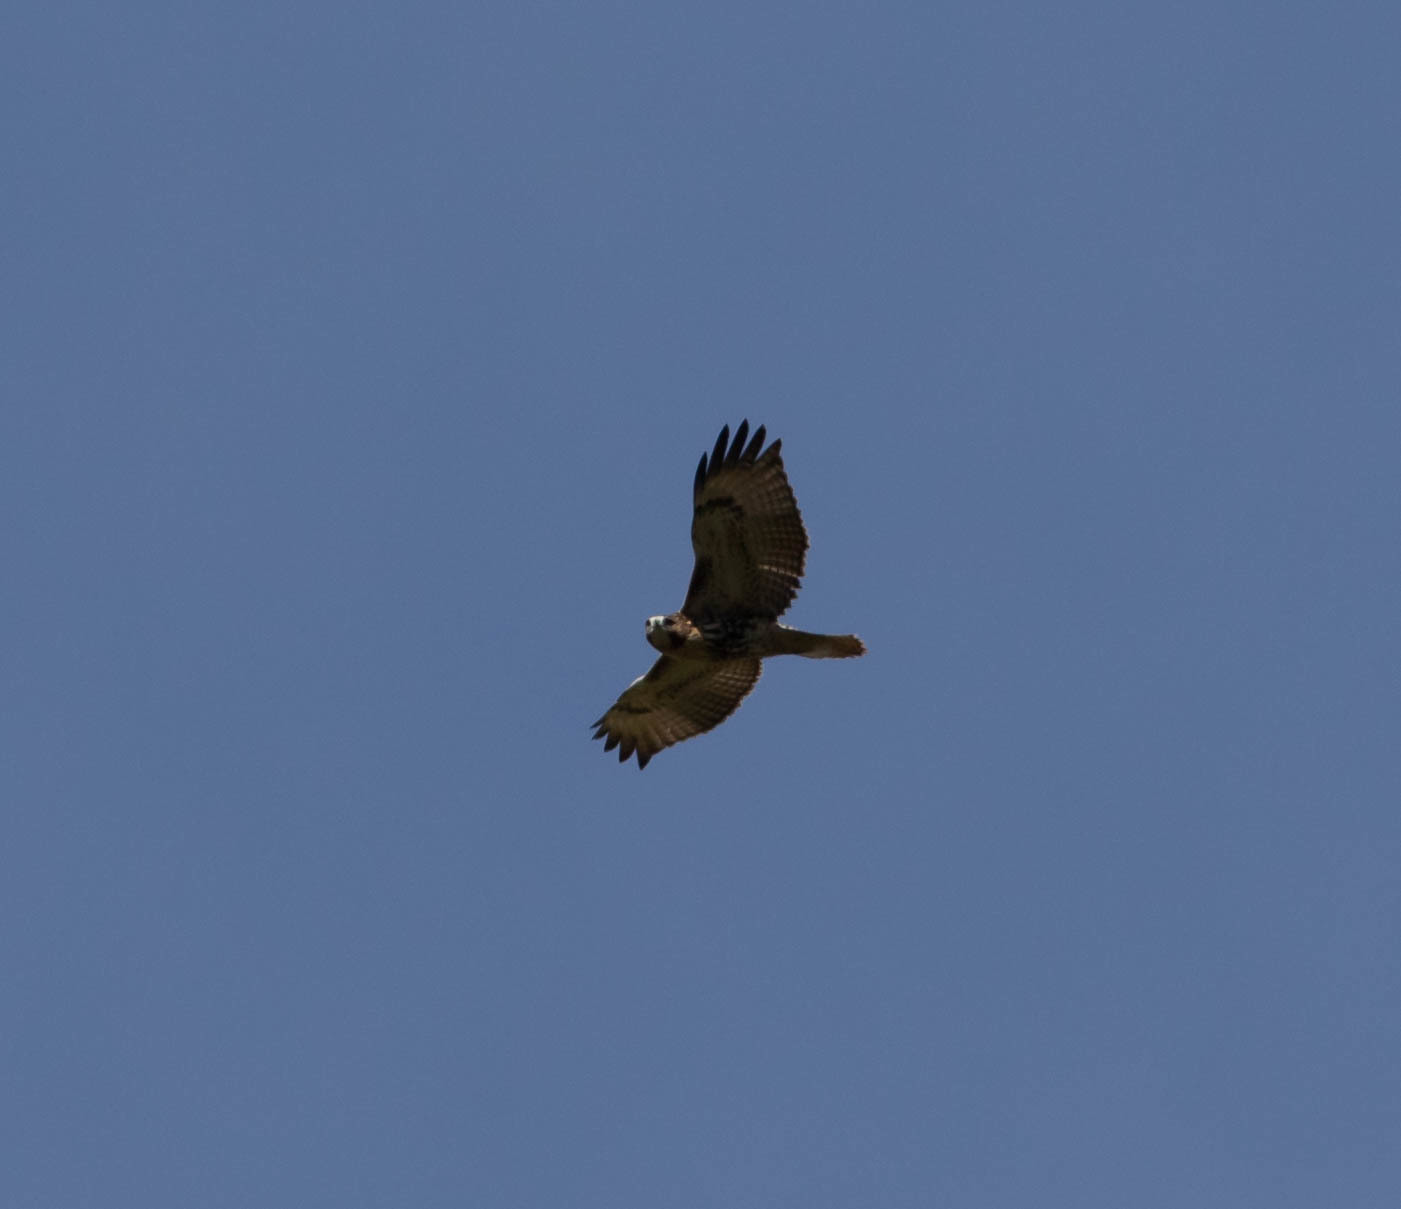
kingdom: Animalia
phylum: Chordata
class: Aves
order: Accipitriformes
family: Accipitridae
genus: Buteo
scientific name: Buteo jamaicensis
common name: Red-tailed hawk
